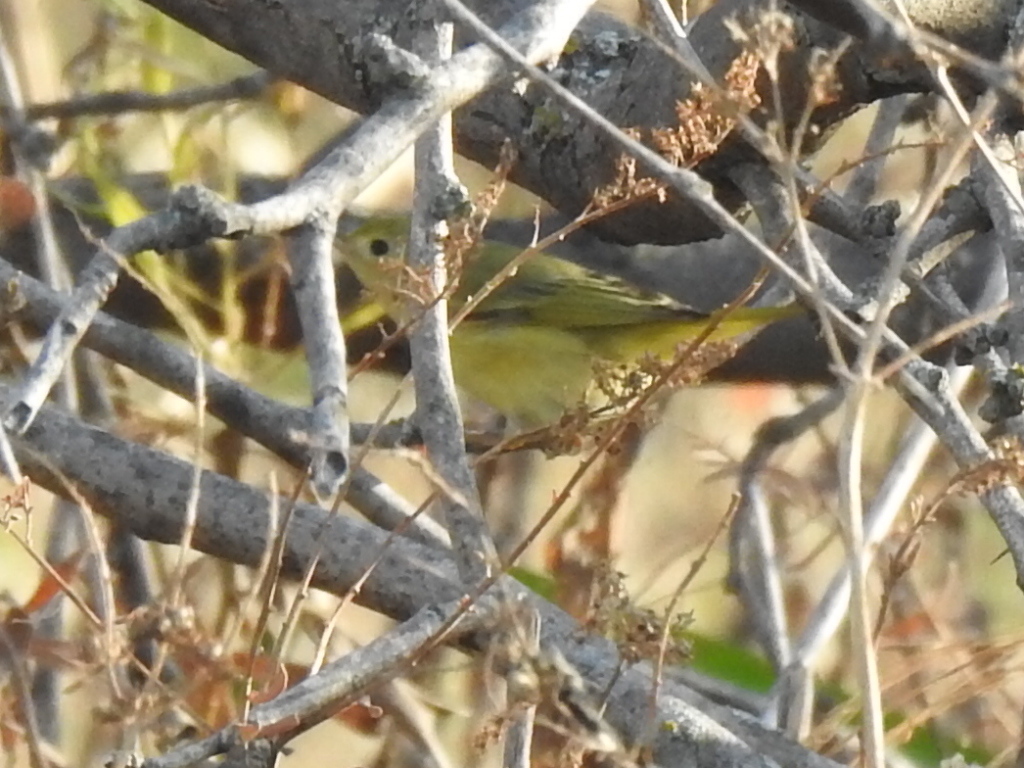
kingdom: Animalia
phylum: Chordata
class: Aves
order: Passeriformes
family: Parulidae
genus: Setophaga
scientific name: Setophaga petechia
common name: Yellow warbler
